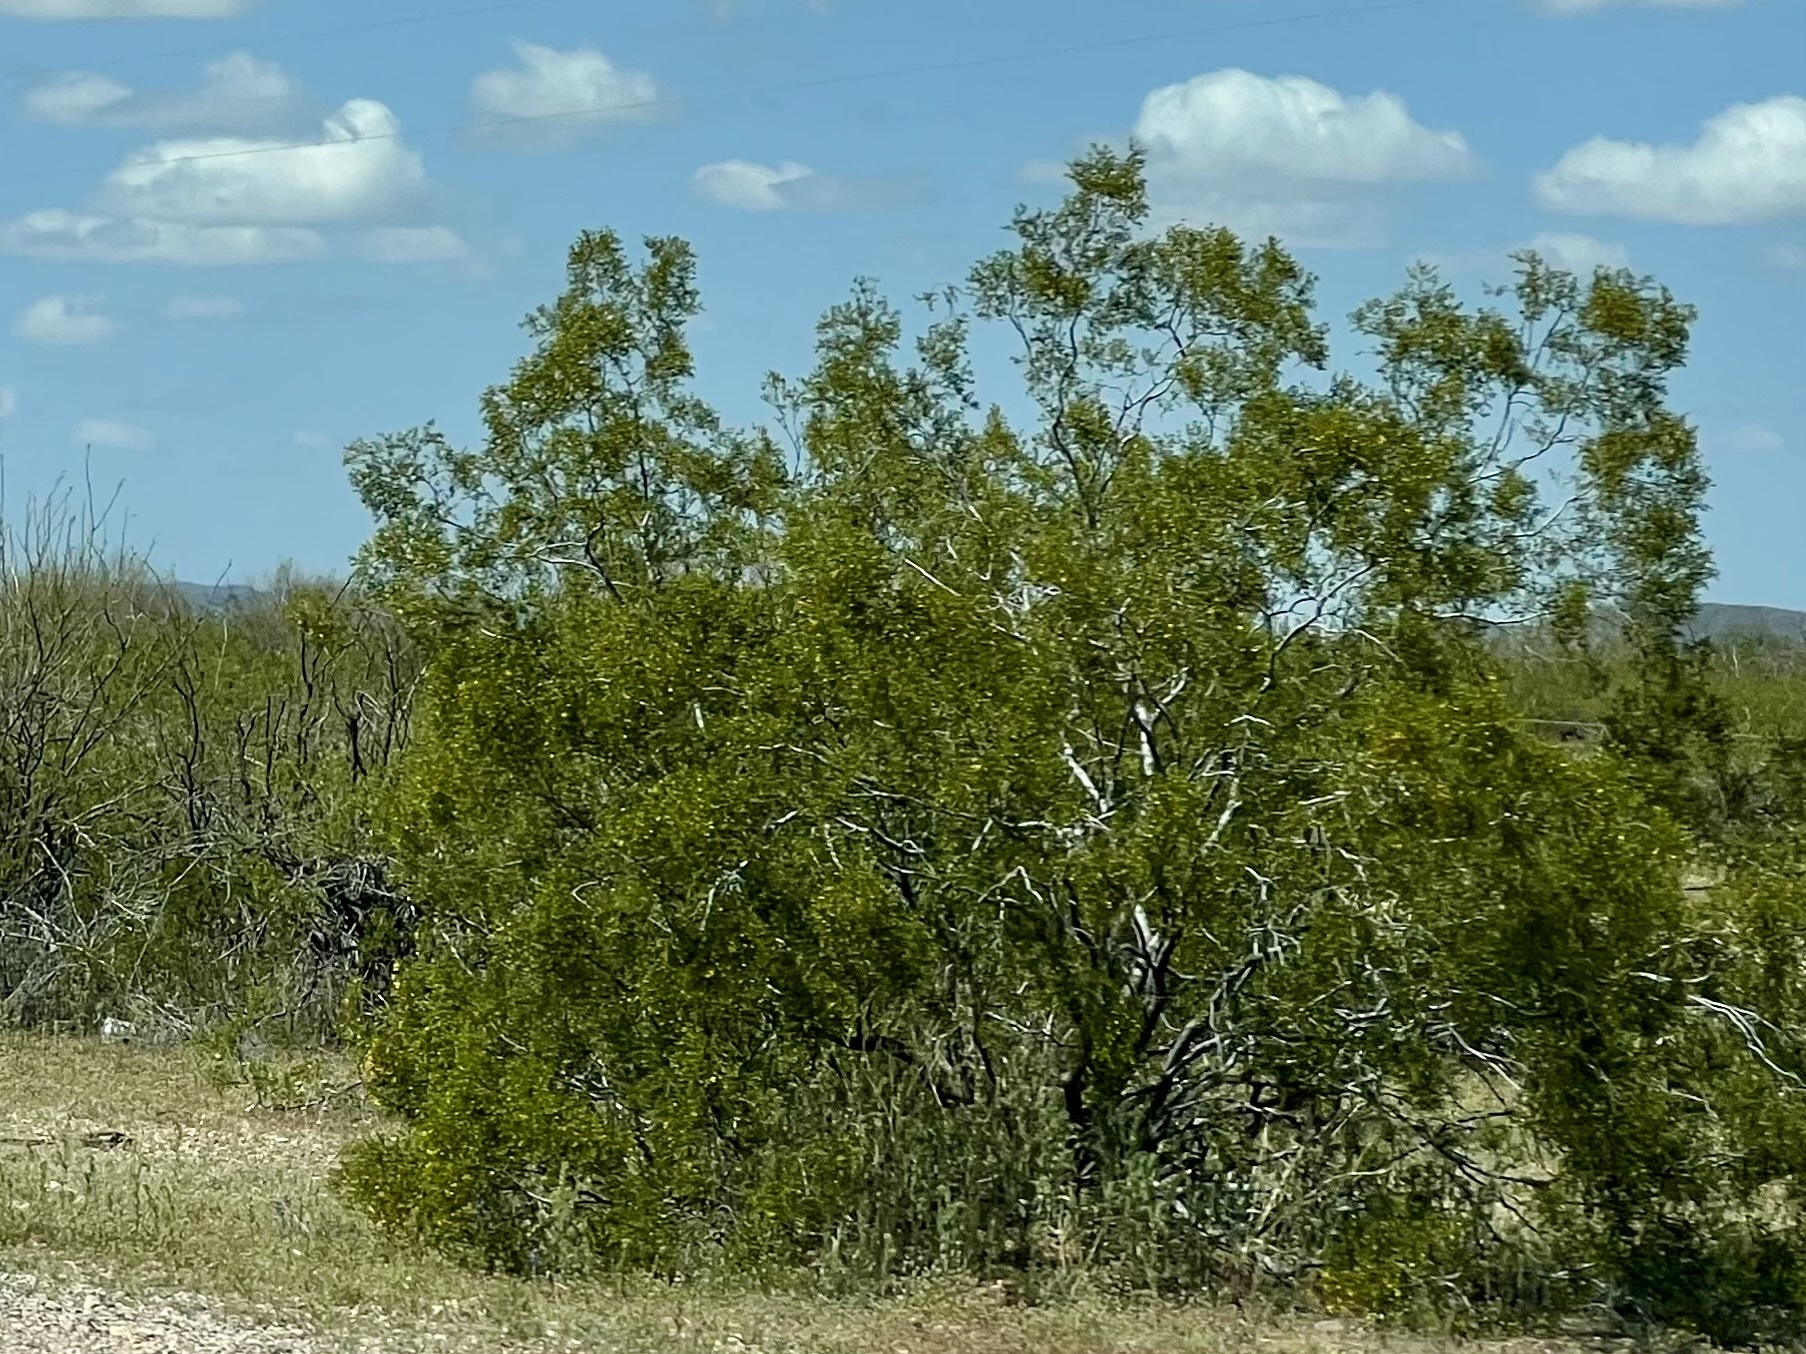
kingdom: Plantae
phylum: Tracheophyta
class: Magnoliopsida
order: Zygophyllales
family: Zygophyllaceae
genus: Larrea
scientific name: Larrea tridentata
